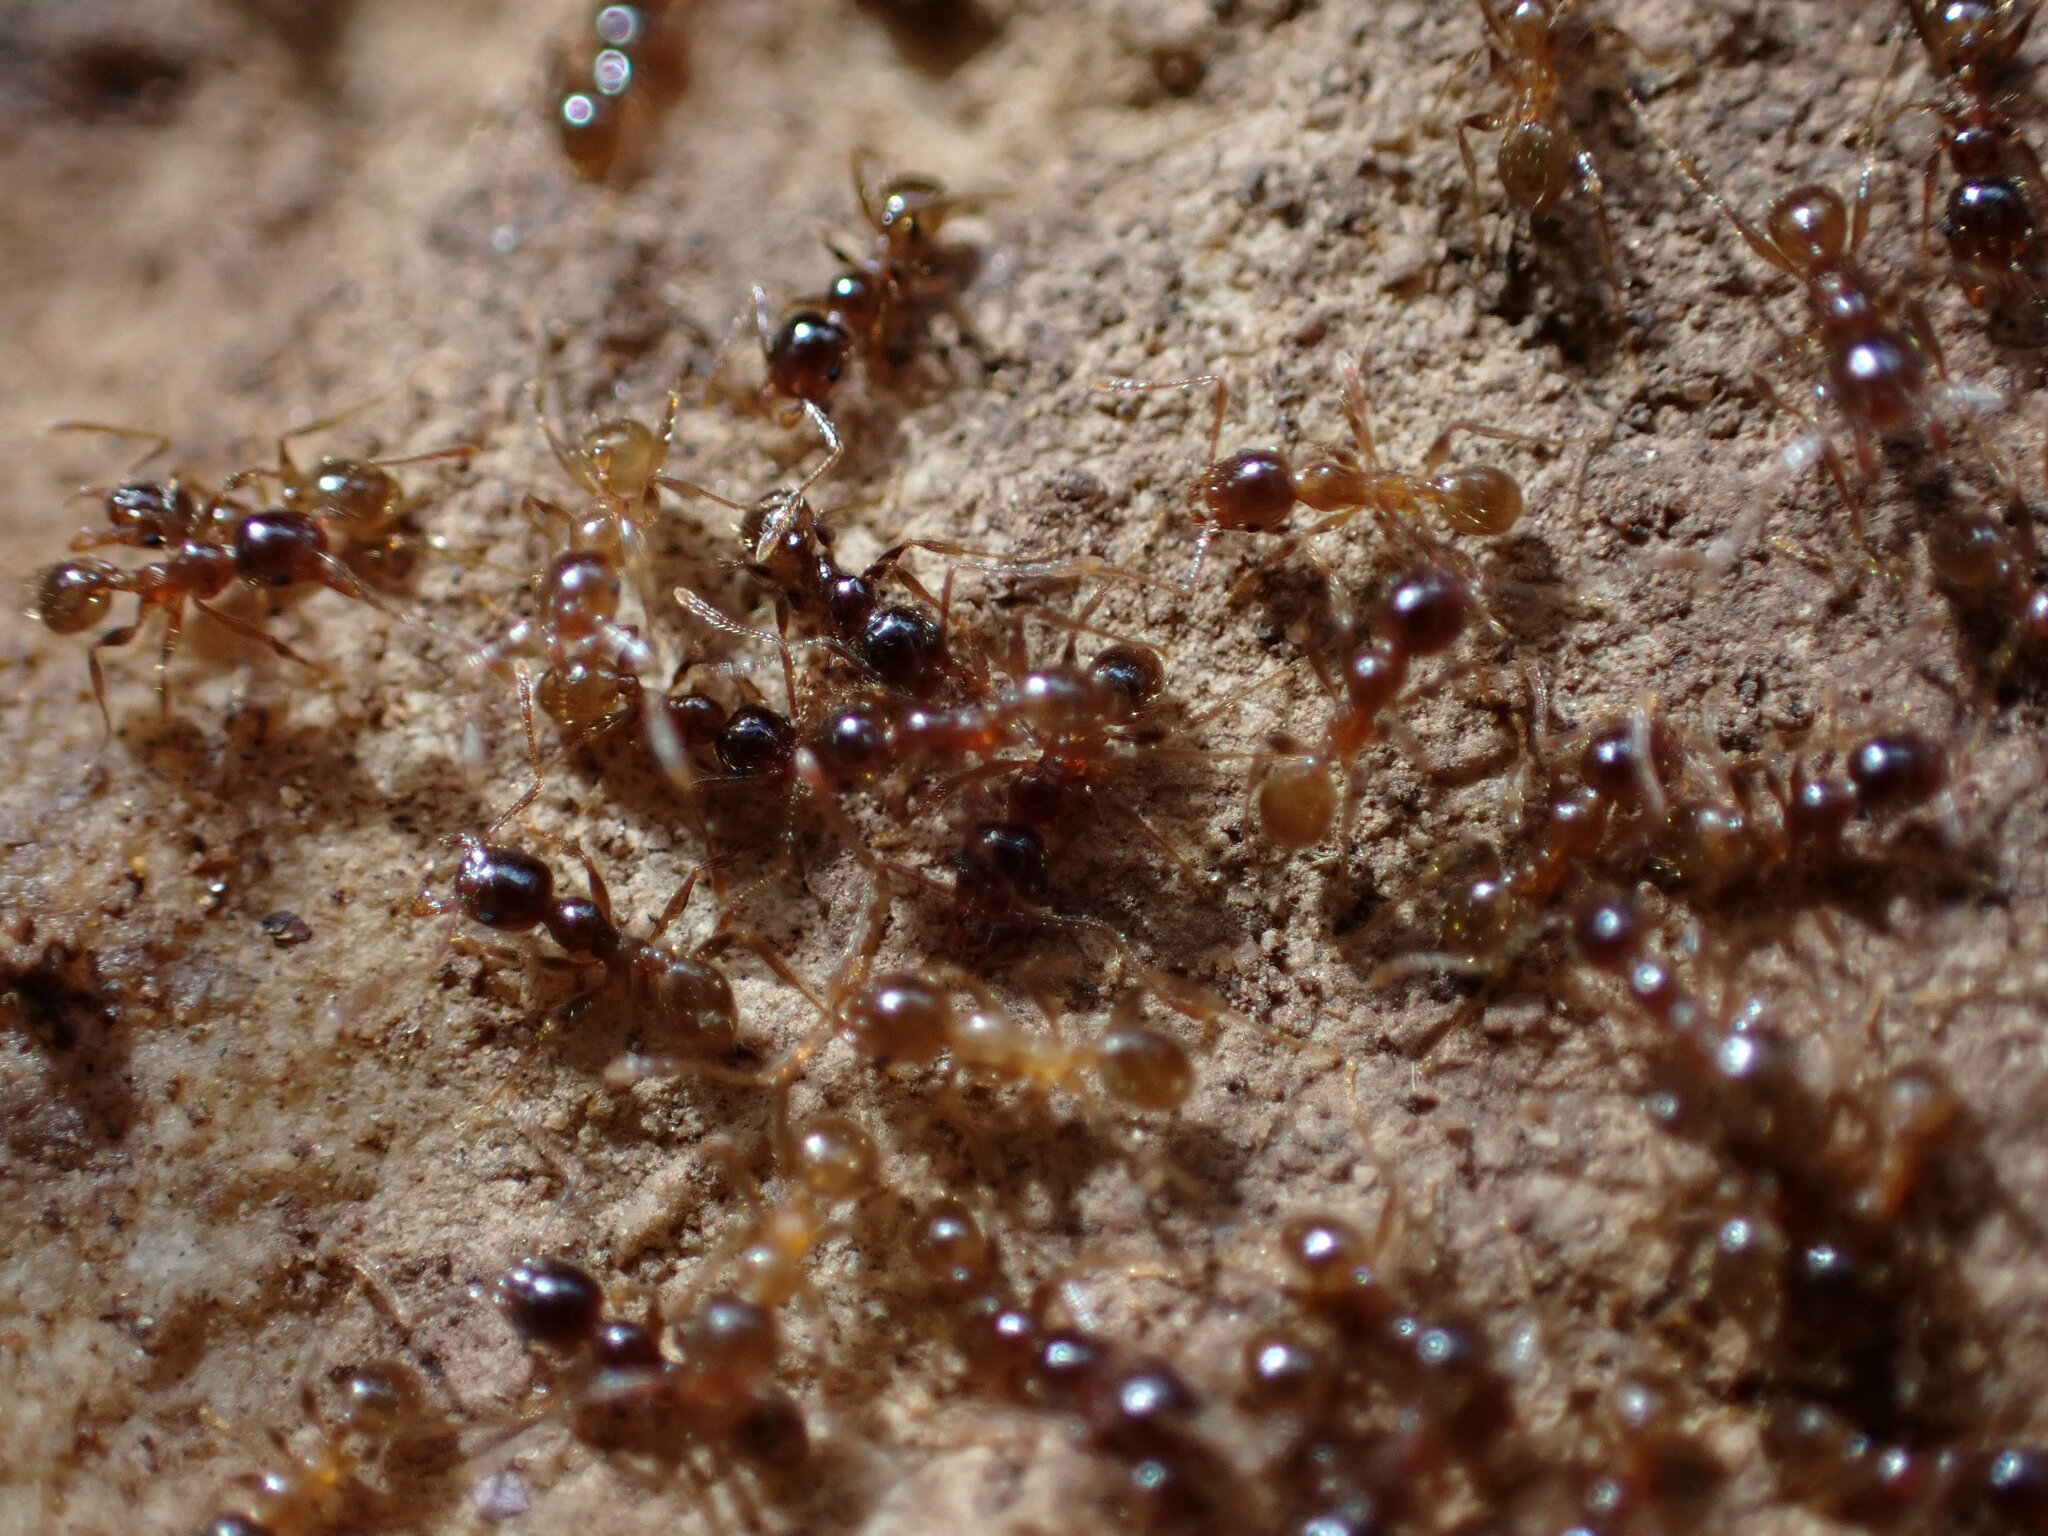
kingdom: Animalia
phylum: Arthropoda
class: Insecta
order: Hymenoptera
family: Formicidae
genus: Pheidole
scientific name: Pheidole pallidula
